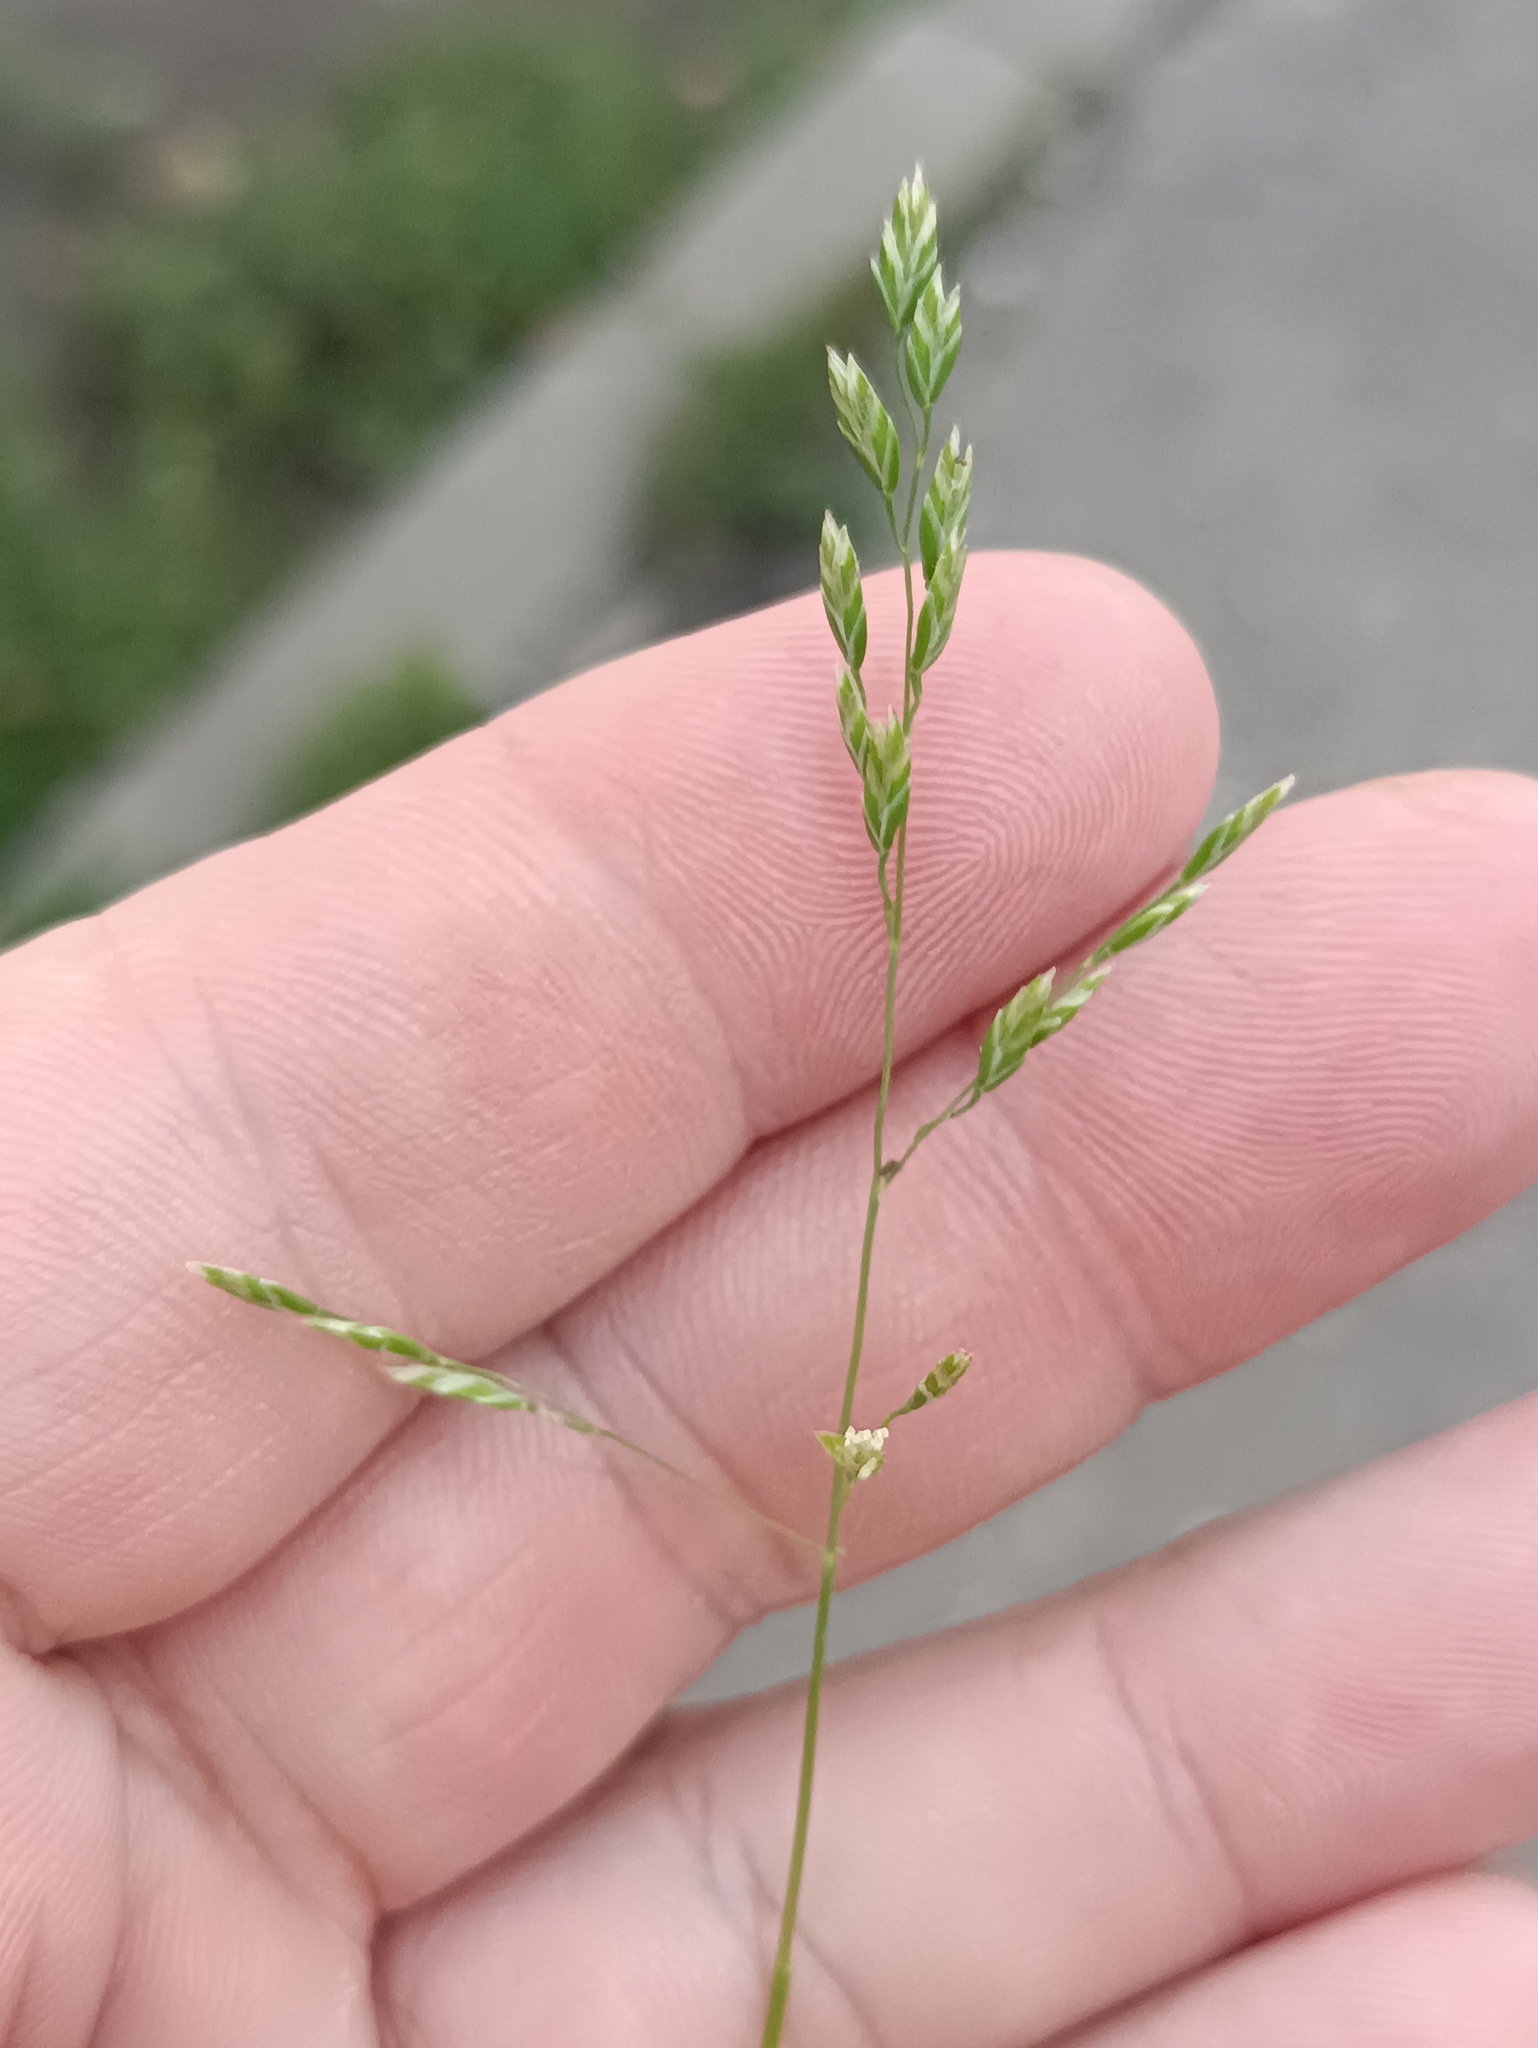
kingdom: Plantae
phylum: Tracheophyta
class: Liliopsida
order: Poales
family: Poaceae
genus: Poa
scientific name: Poa annua
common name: Annual bluegrass
